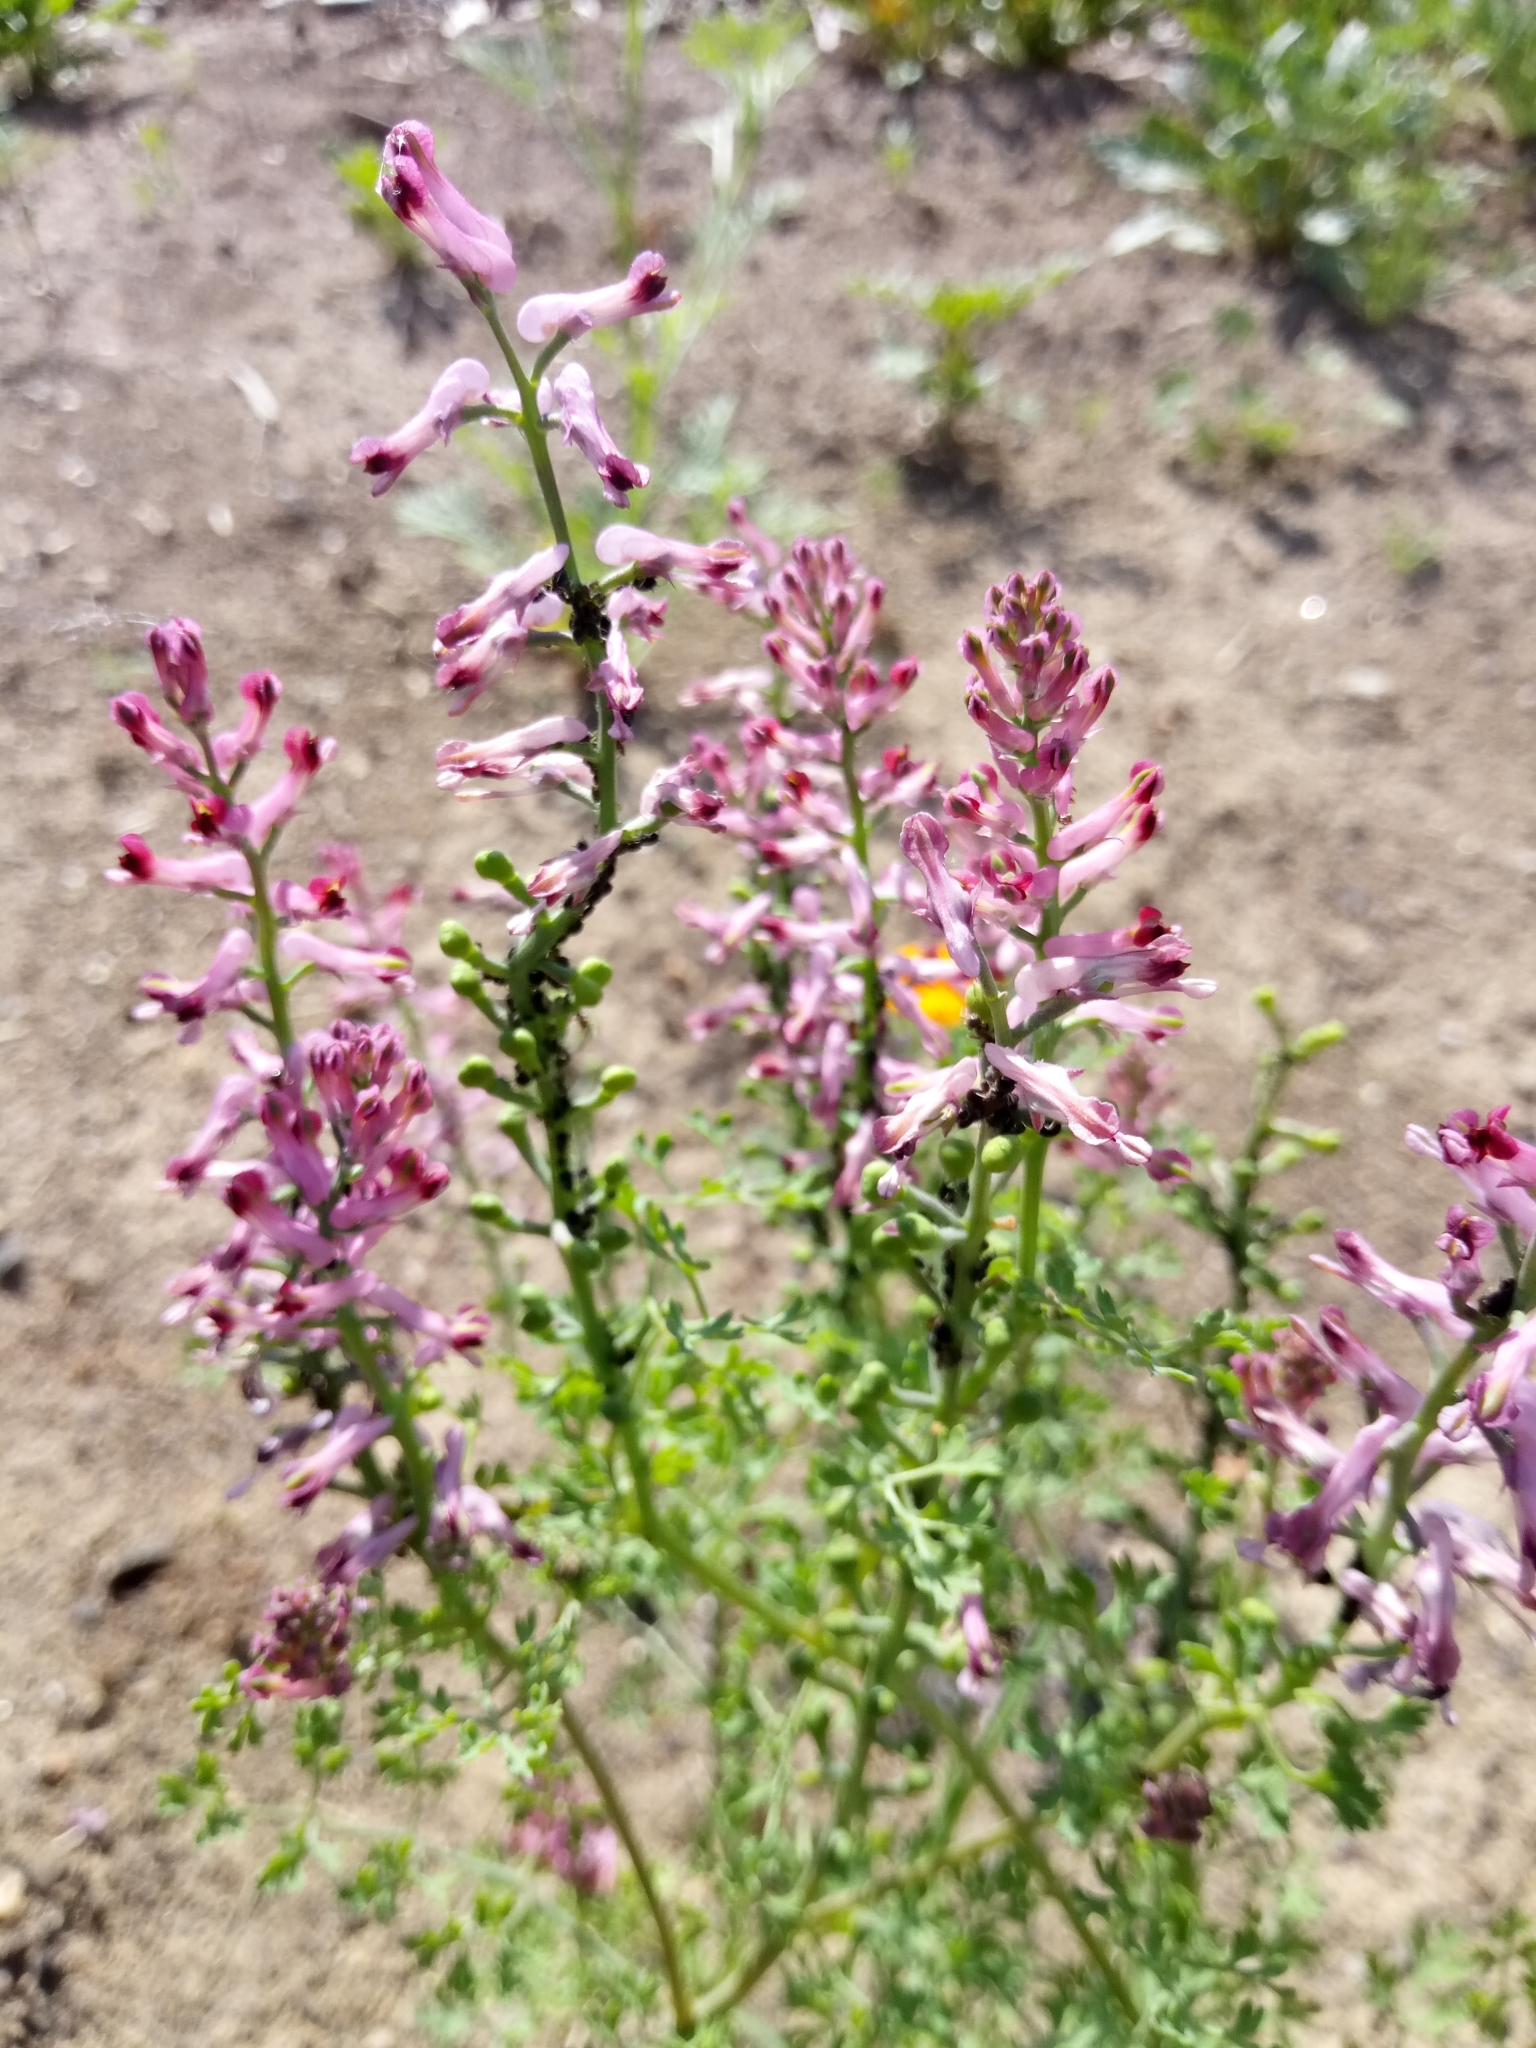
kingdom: Plantae
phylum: Tracheophyta
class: Magnoliopsida
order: Ranunculales
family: Papaveraceae
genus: Fumaria
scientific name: Fumaria officinalis
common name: Common fumitory
